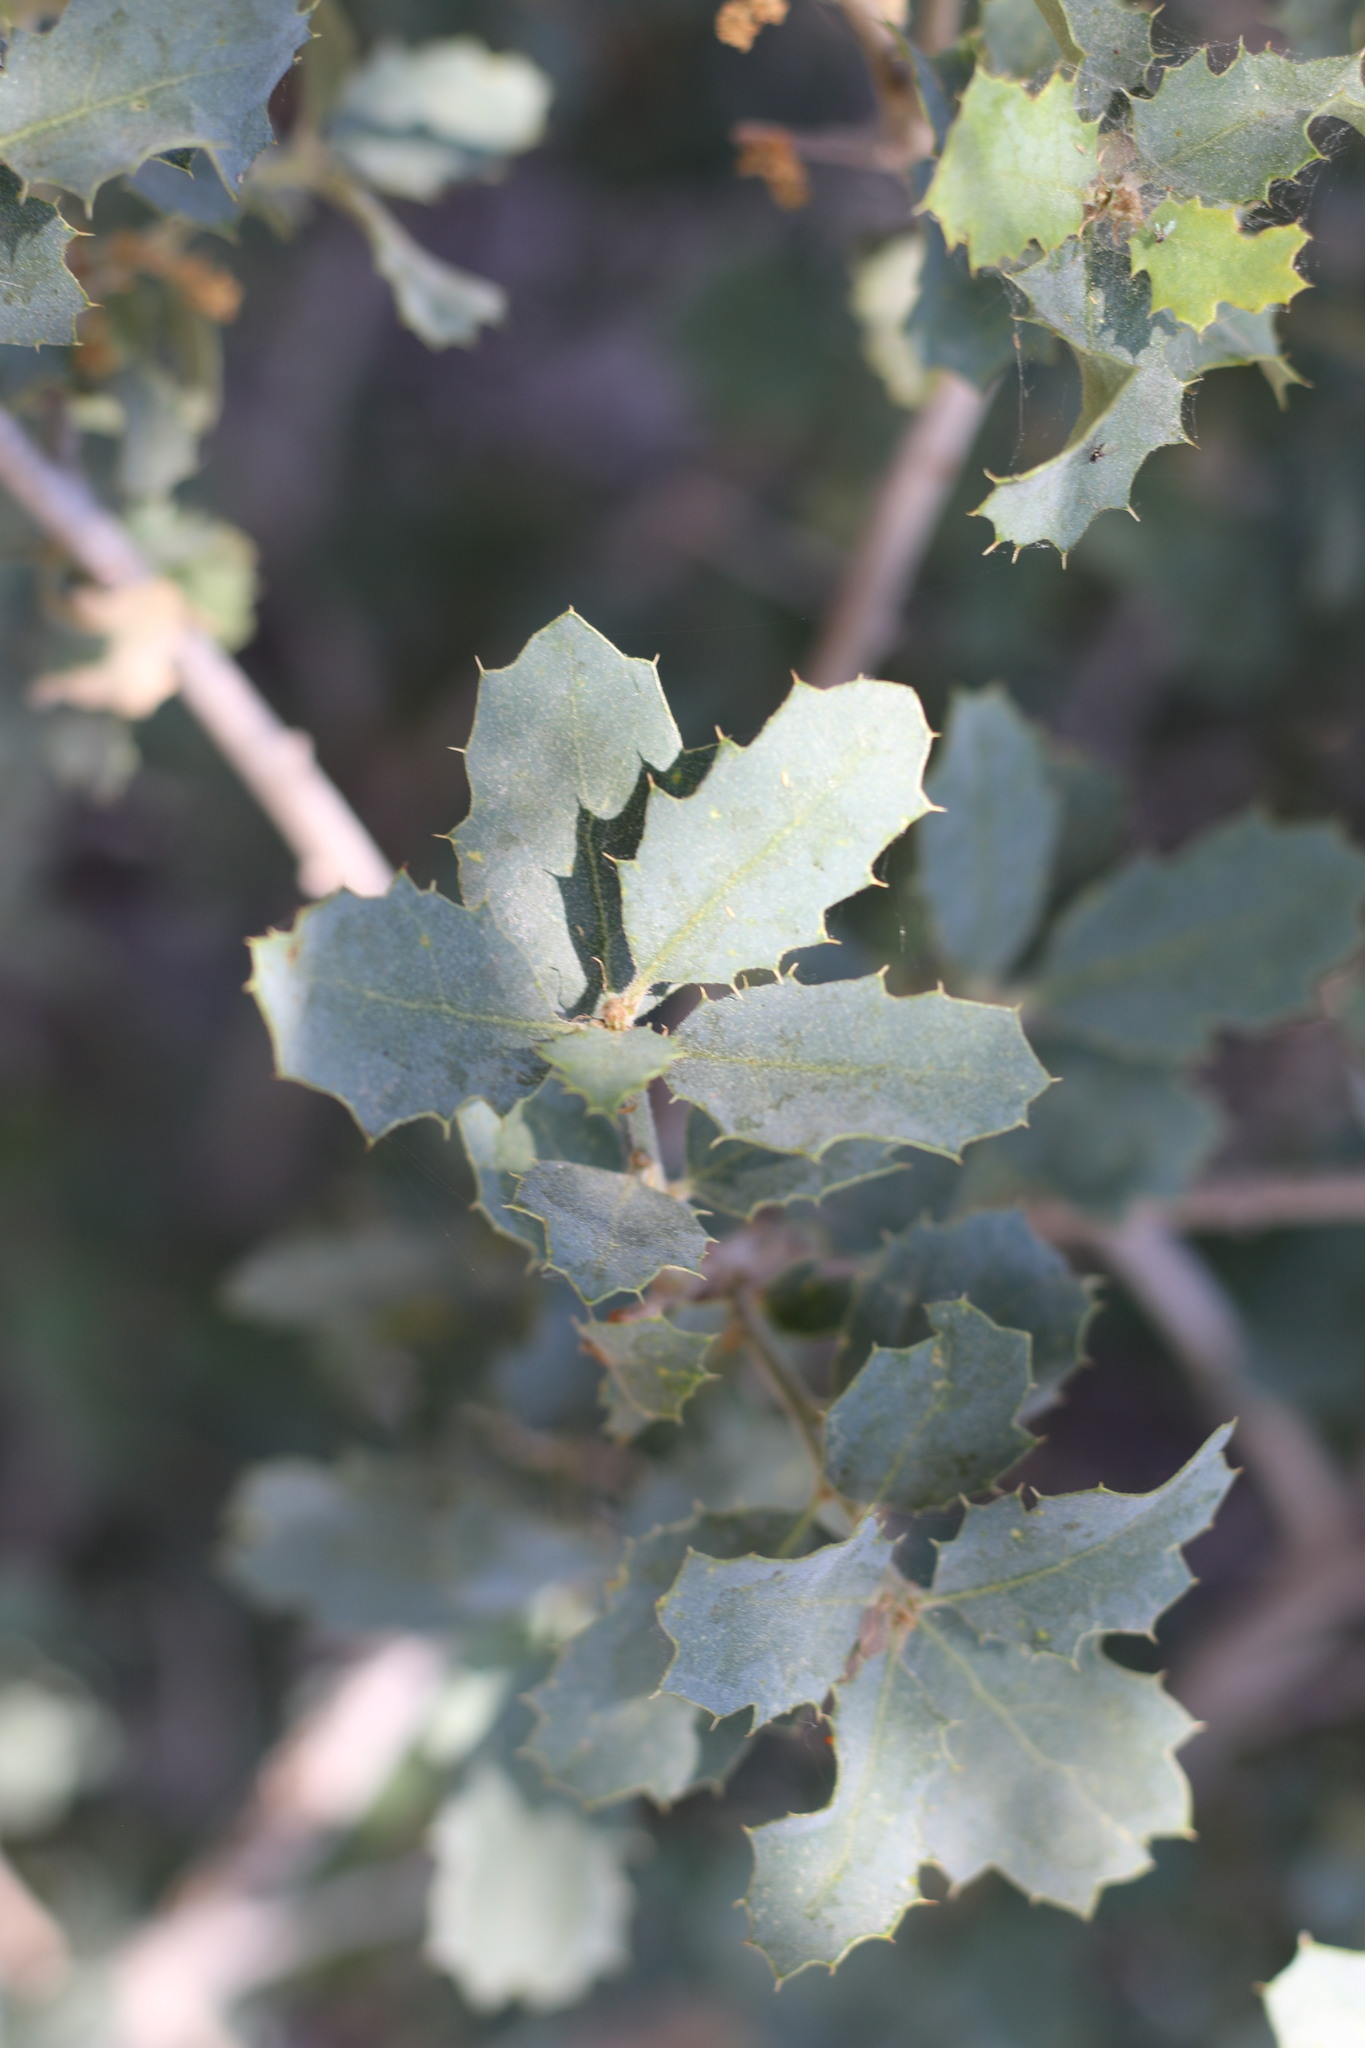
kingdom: Plantae
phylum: Tracheophyta
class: Magnoliopsida
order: Fagales
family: Fagaceae
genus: Quercus
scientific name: Quercus john-tuckeri
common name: Tucker's oak
